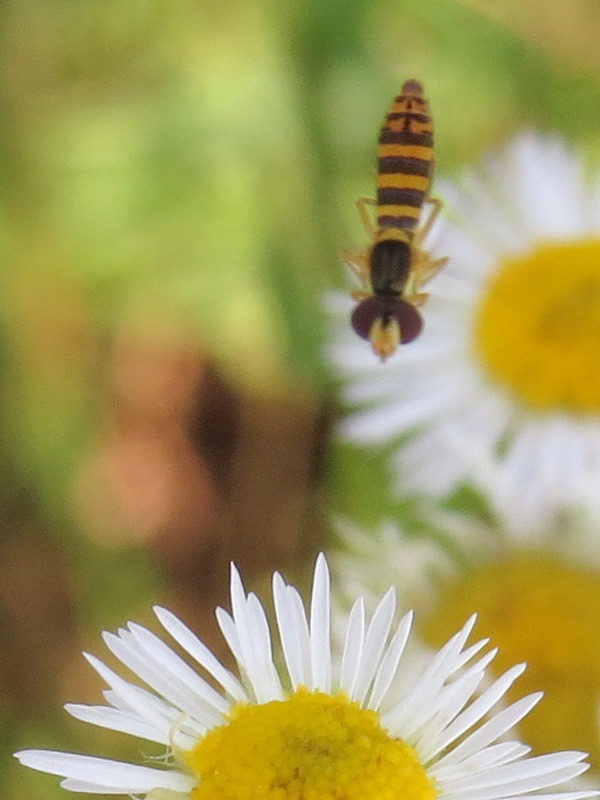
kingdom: Animalia
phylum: Arthropoda
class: Insecta
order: Diptera
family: Syrphidae
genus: Sphaerophoria
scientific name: Sphaerophoria
